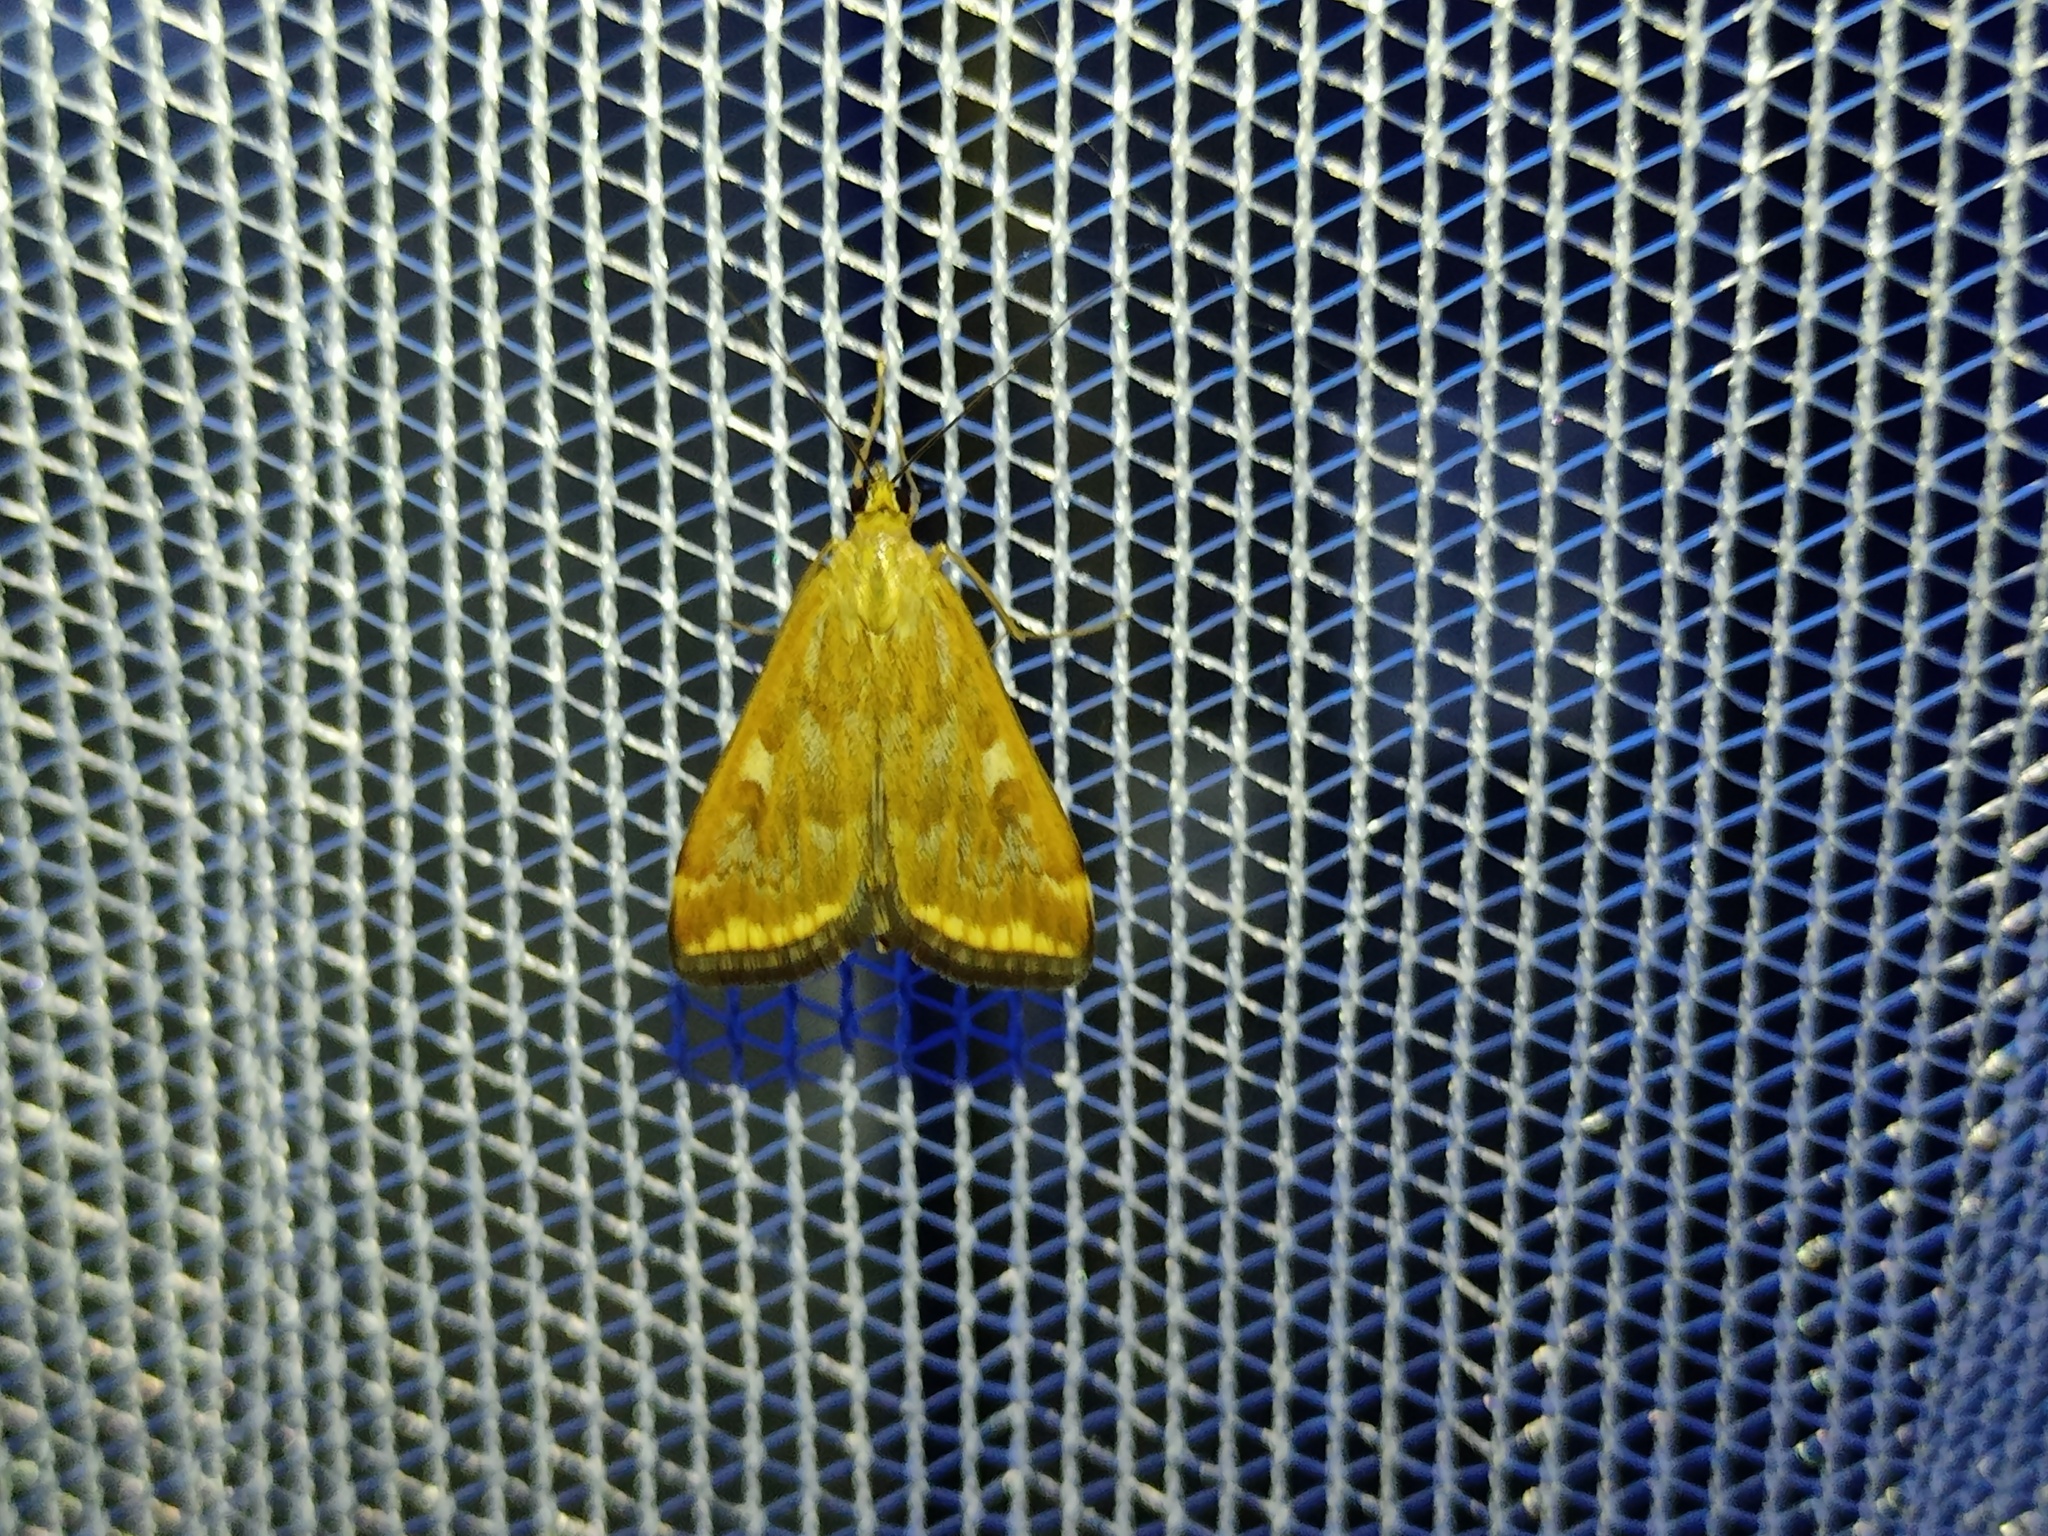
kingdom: Animalia
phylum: Arthropoda
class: Insecta
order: Lepidoptera
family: Crambidae
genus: Loxostege
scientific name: Loxostege sticticalis
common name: Crambid moth
